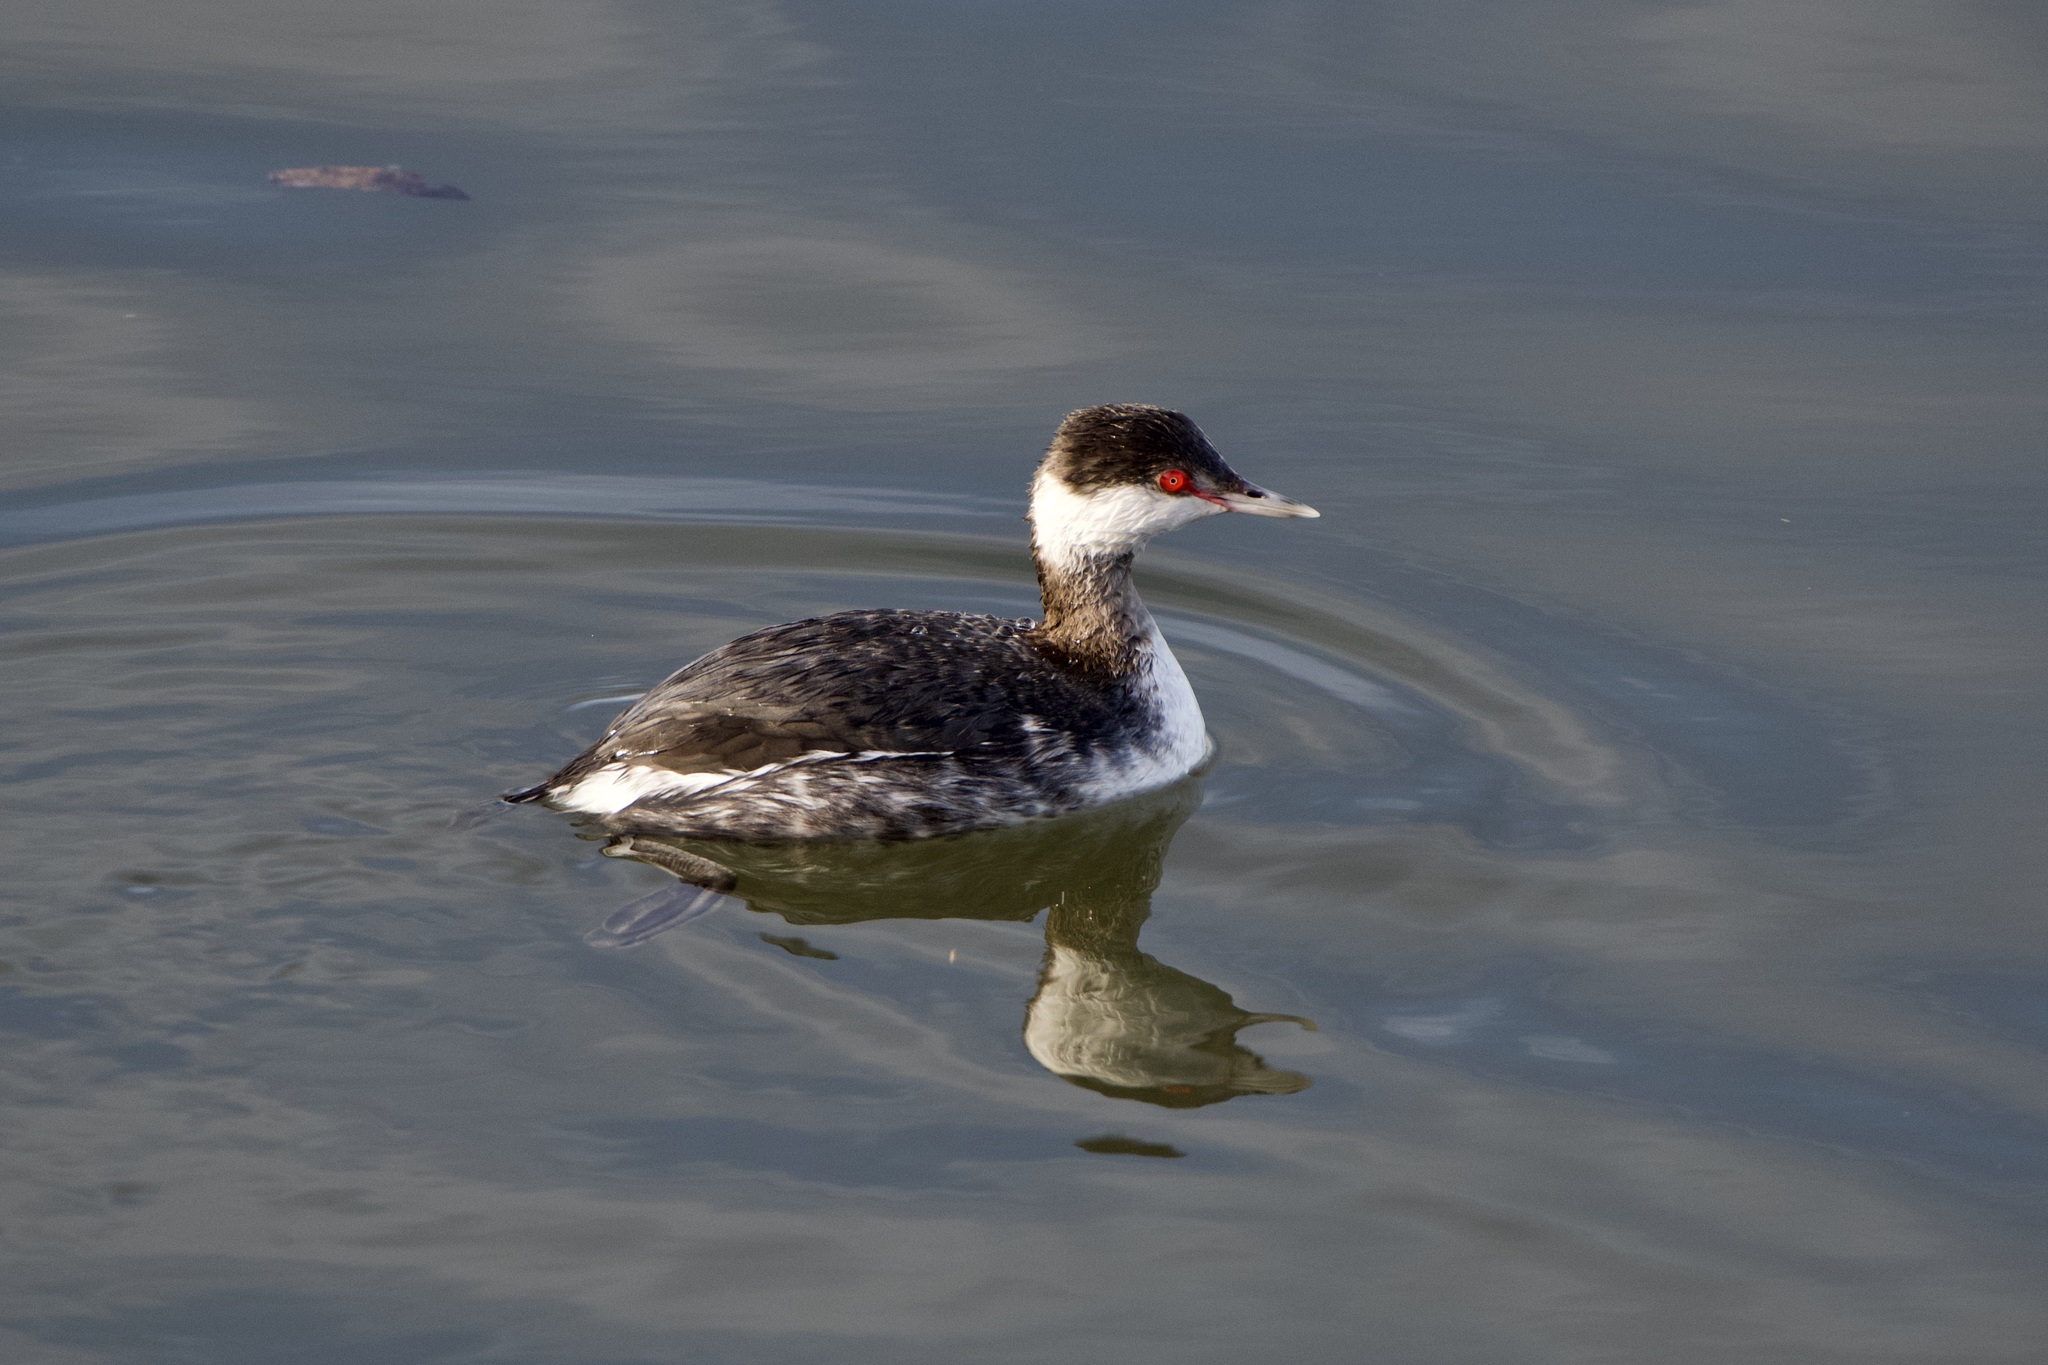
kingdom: Animalia
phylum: Chordata
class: Aves
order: Podicipediformes
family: Podicipedidae
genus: Podiceps
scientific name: Podiceps auritus
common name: Horned grebe
